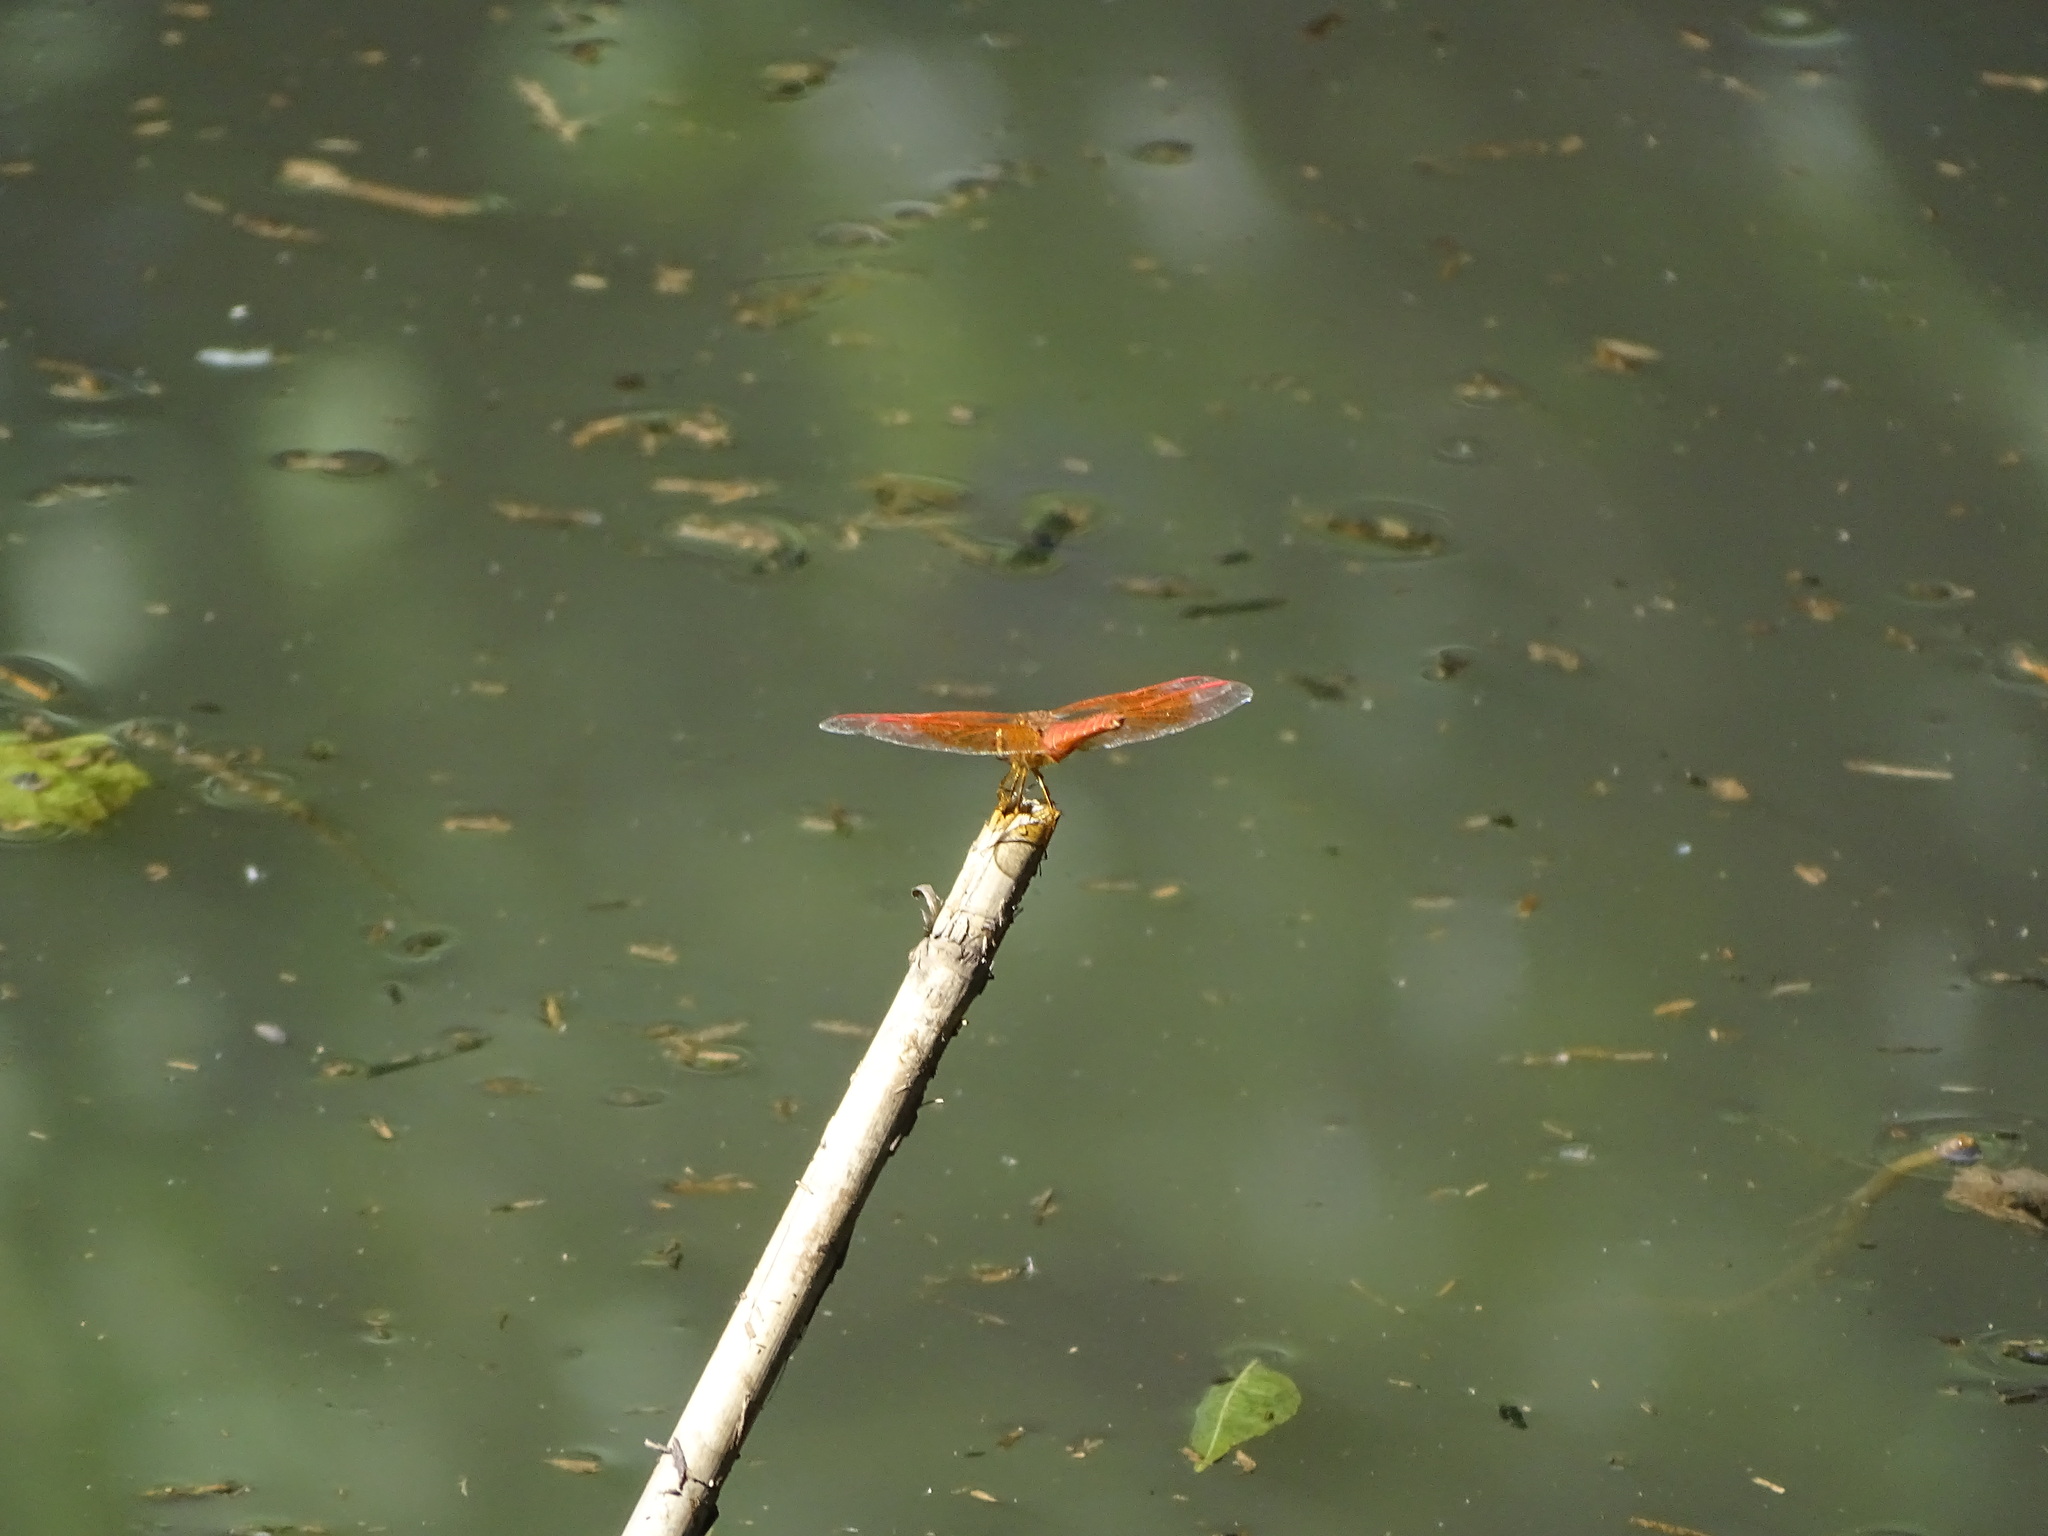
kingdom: Animalia
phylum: Arthropoda
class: Insecta
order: Odonata
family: Libellulidae
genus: Brachythemis
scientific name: Brachythemis contaminata
